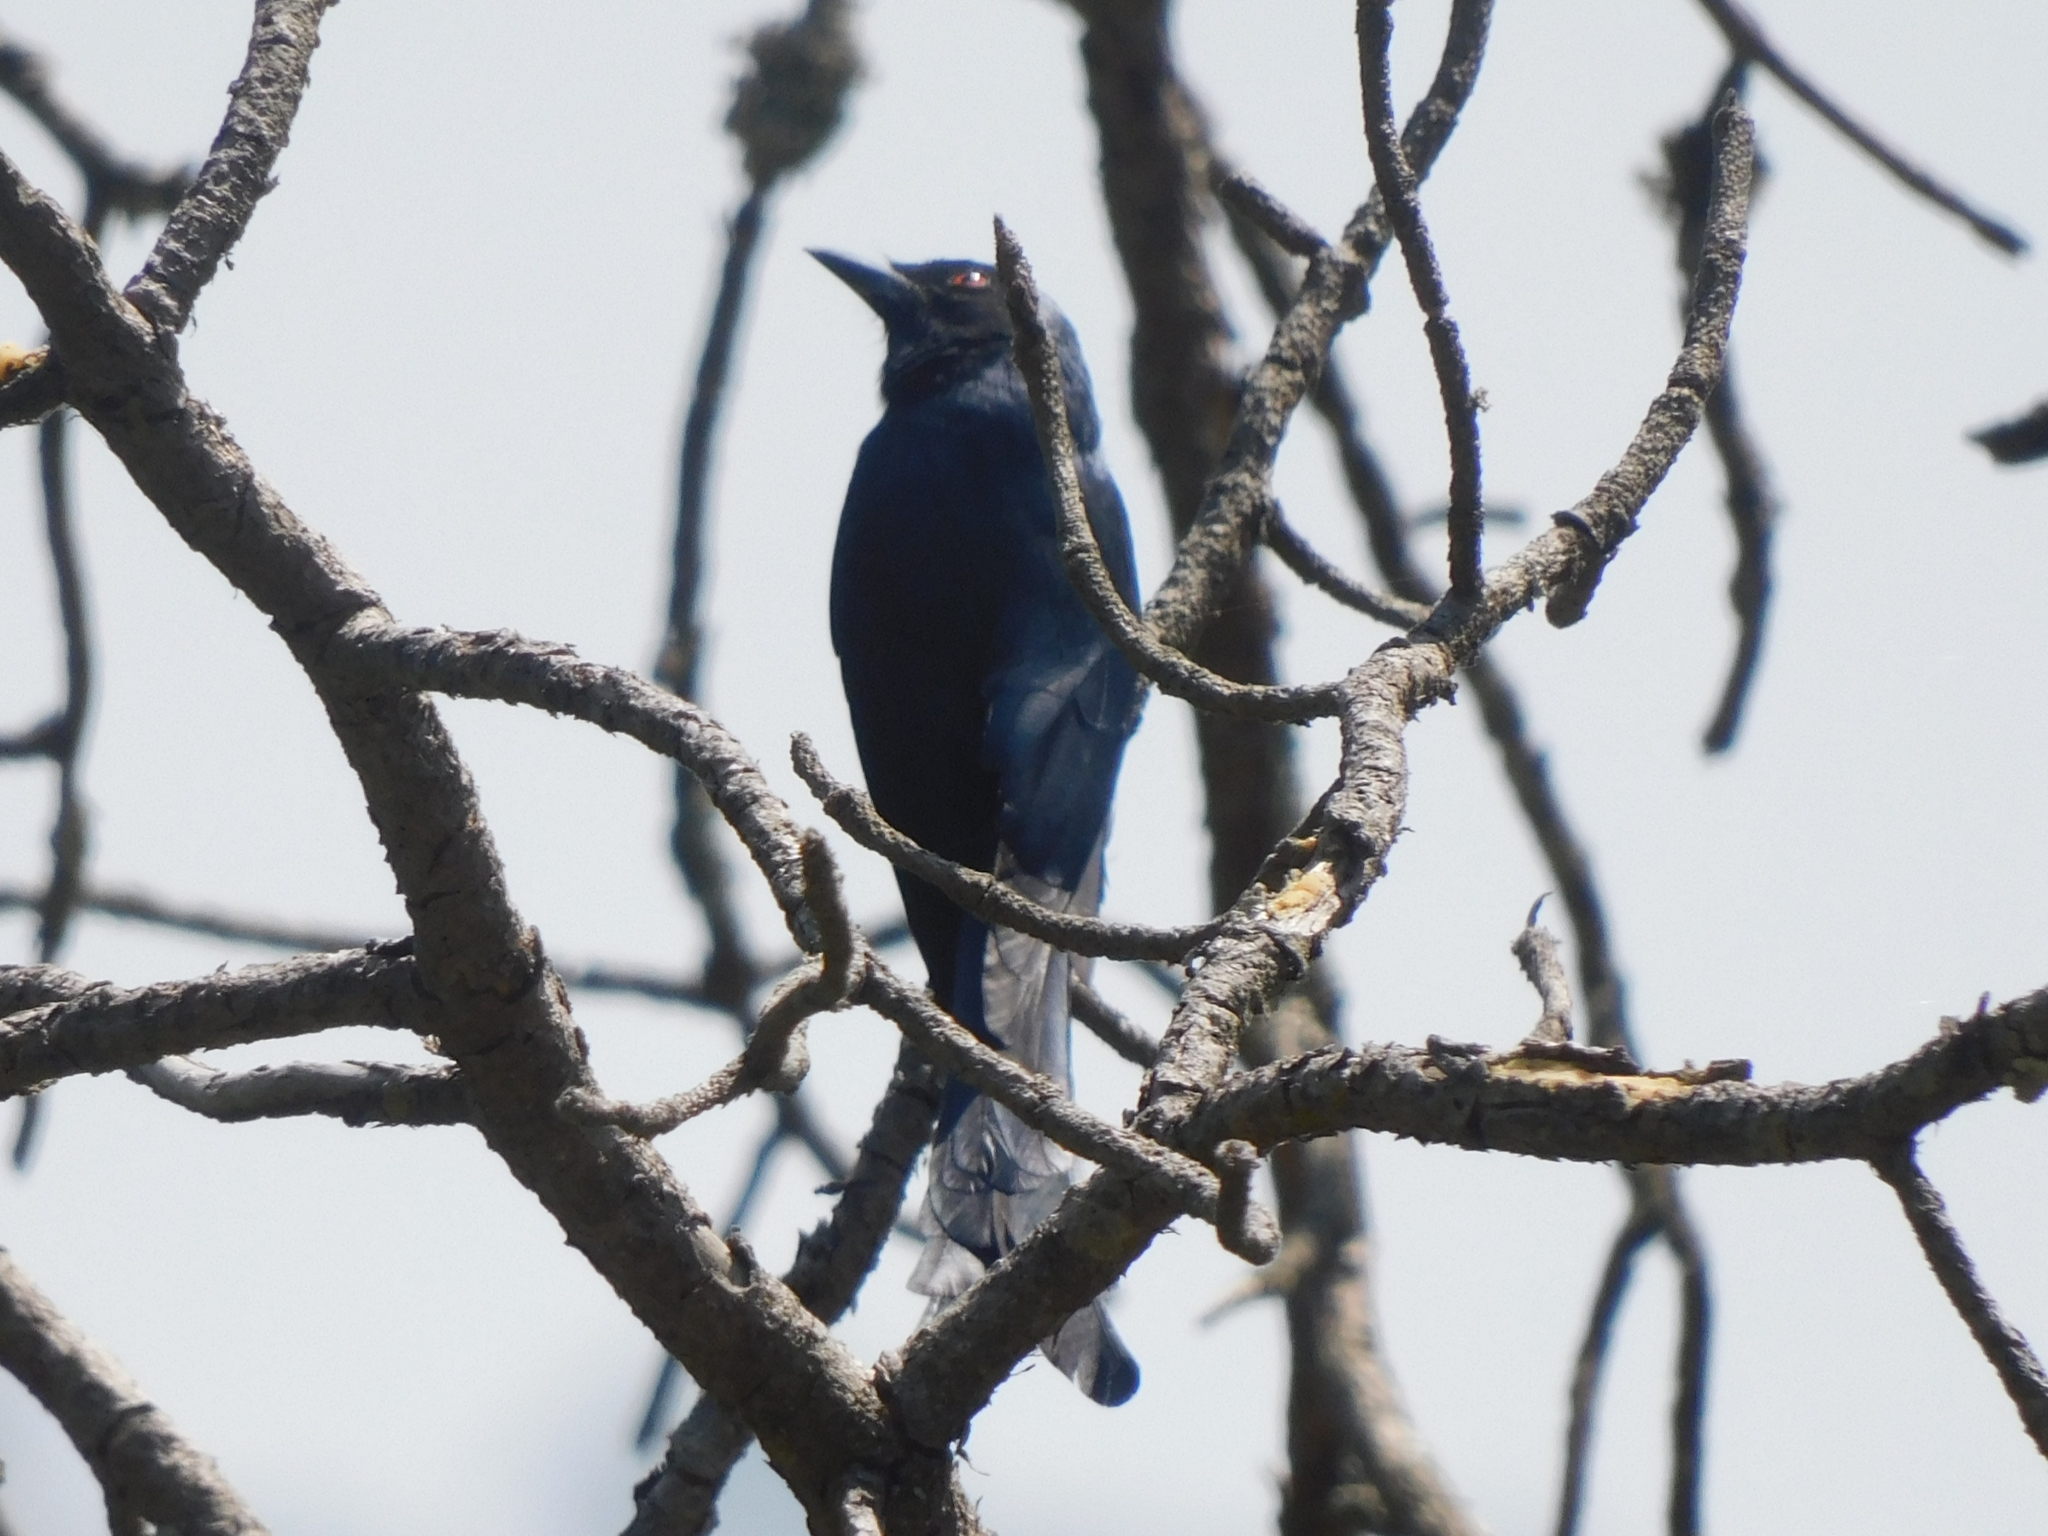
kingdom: Animalia
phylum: Chordata
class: Aves
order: Passeriformes
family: Dicruridae
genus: Dicrurus
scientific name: Dicrurus leucophaeus
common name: Ashy drongo
